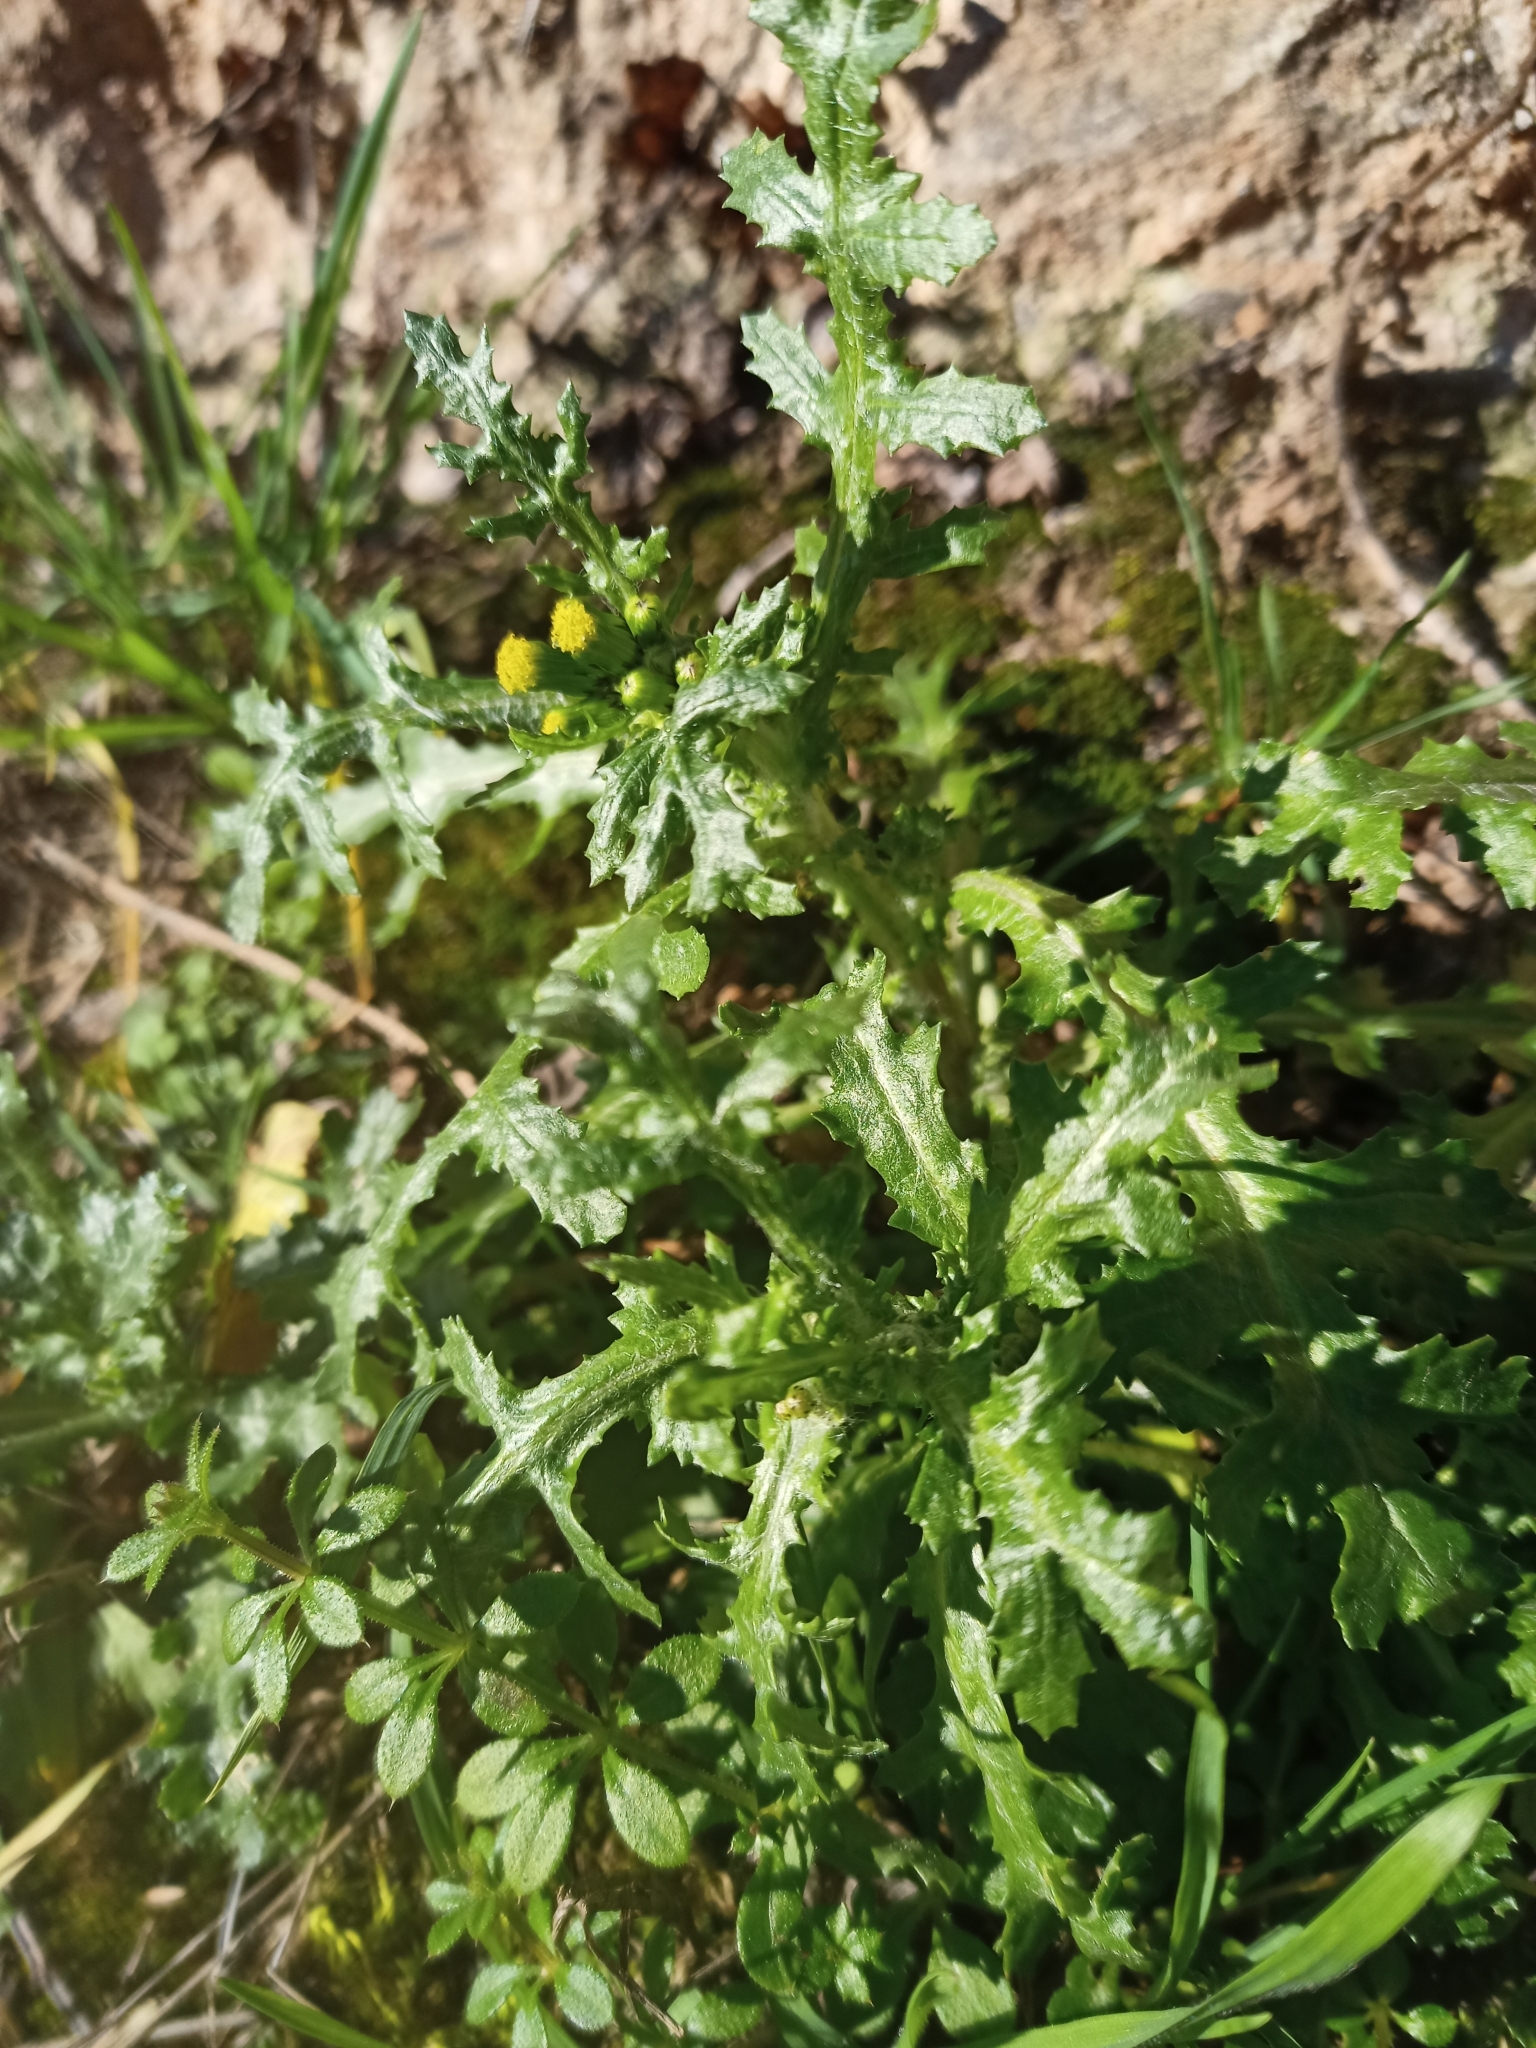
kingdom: Plantae
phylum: Tracheophyta
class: Magnoliopsida
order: Asterales
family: Asteraceae
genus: Senecio
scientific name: Senecio vulgaris
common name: Old-man-in-the-spring
